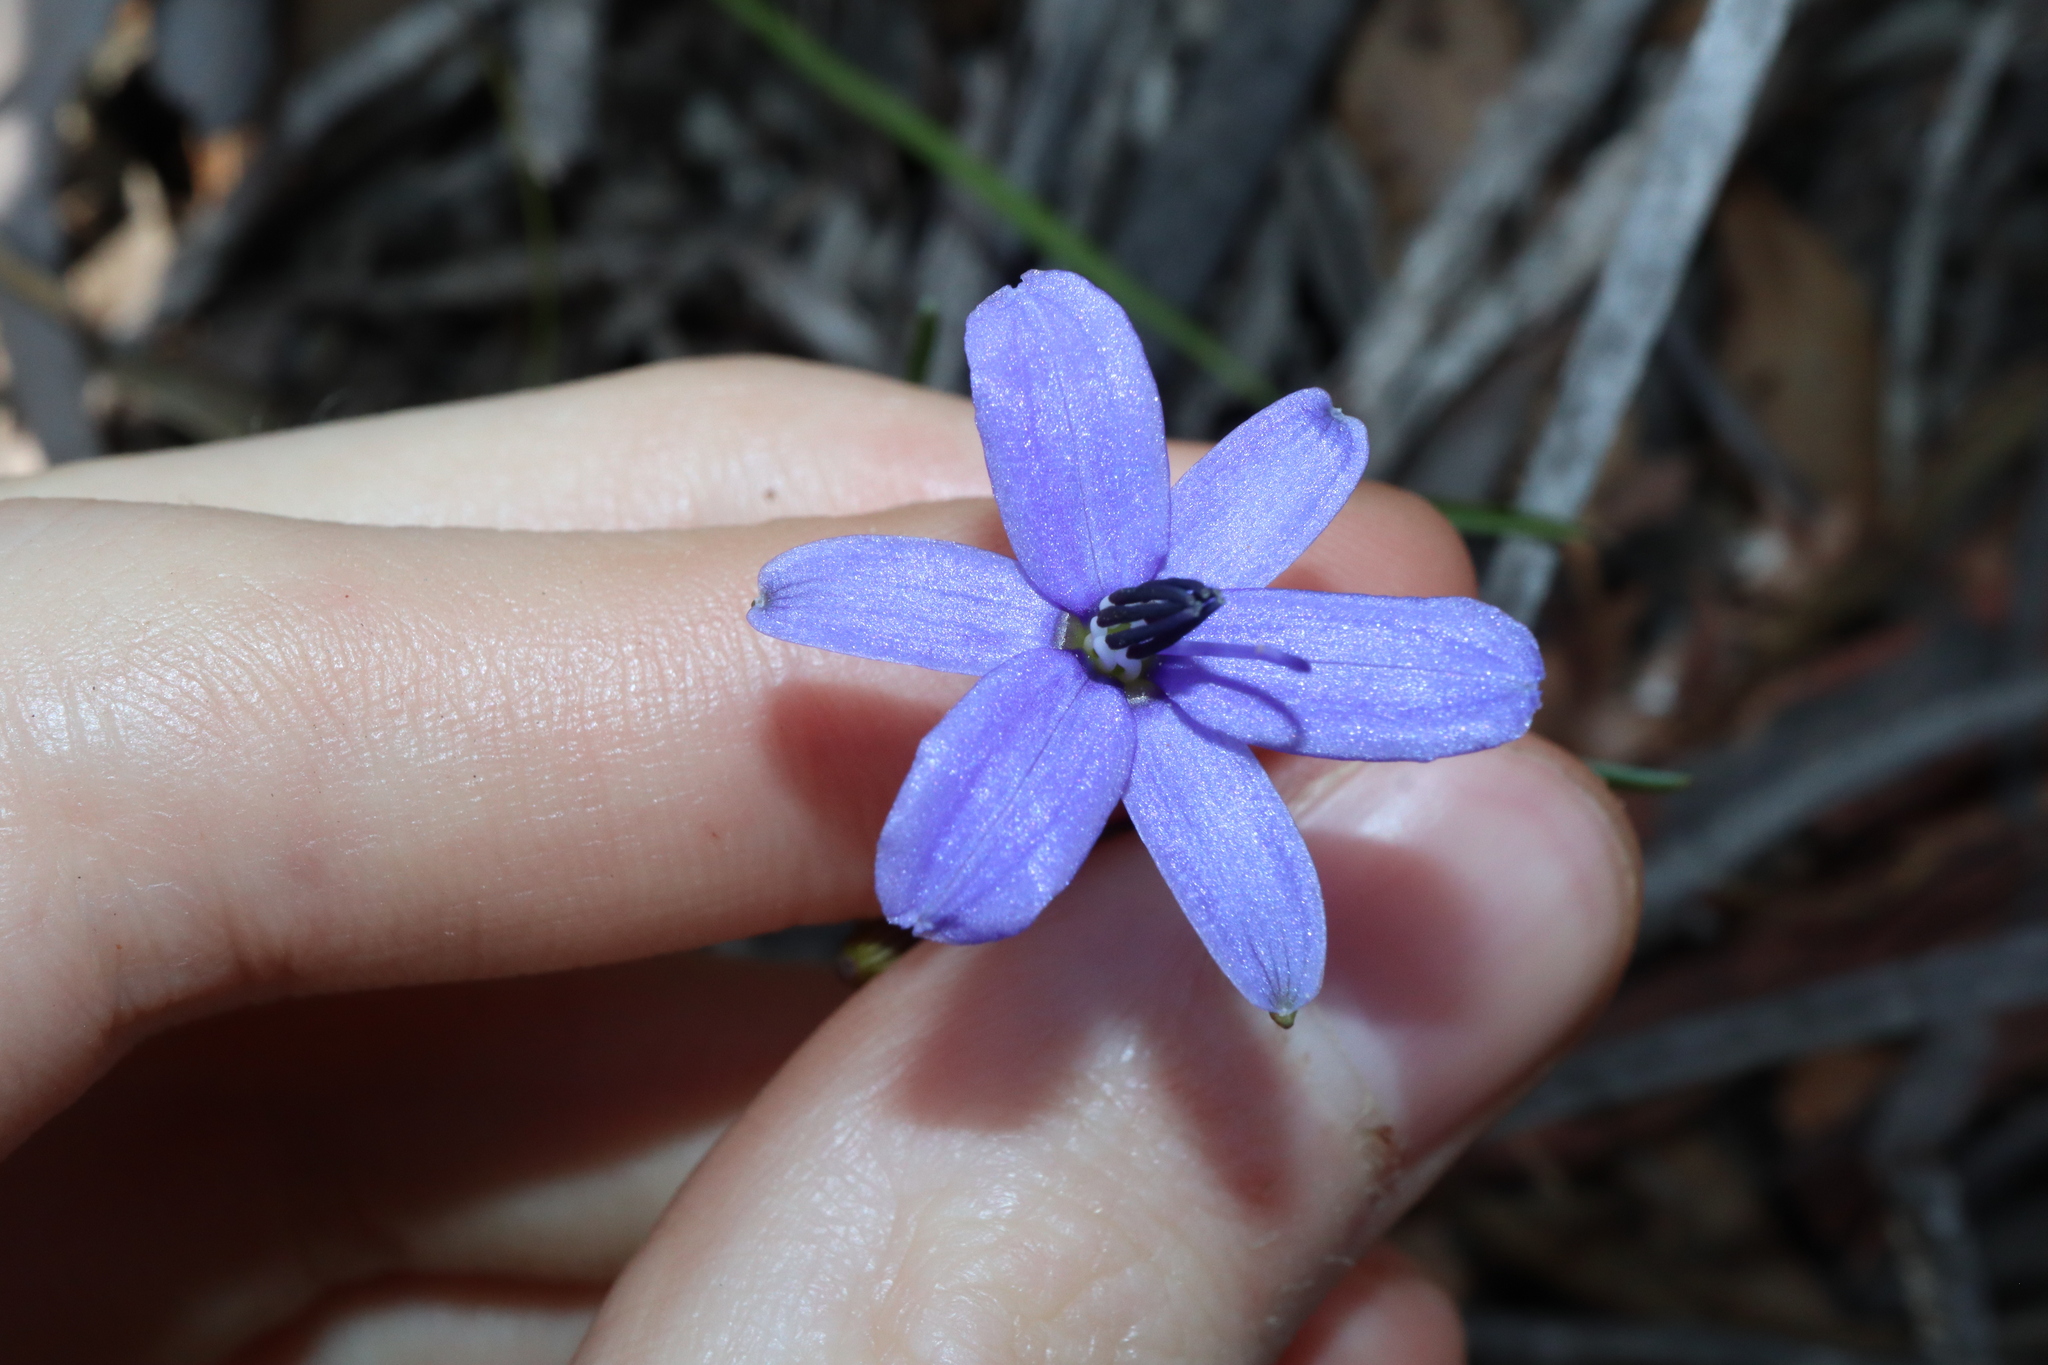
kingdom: Plantae
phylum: Tracheophyta
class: Liliopsida
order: Asparagales
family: Asphodelaceae
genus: Agrostocrinum
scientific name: Agrostocrinum scabrum
